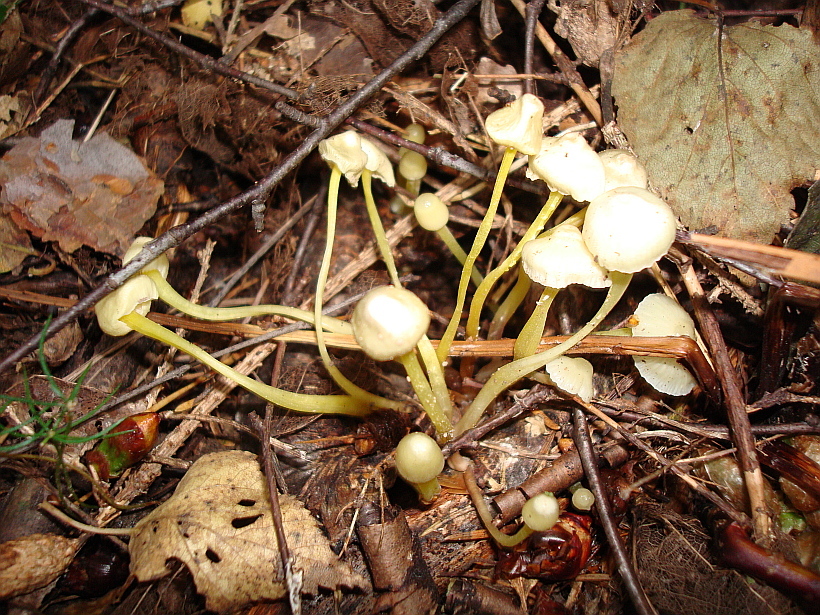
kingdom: Fungi
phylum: Basidiomycota
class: Agaricomycetes
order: Agaricales
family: Mycenaceae
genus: Mycena
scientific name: Mycena epipterygia
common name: Yellowleg bonnet
